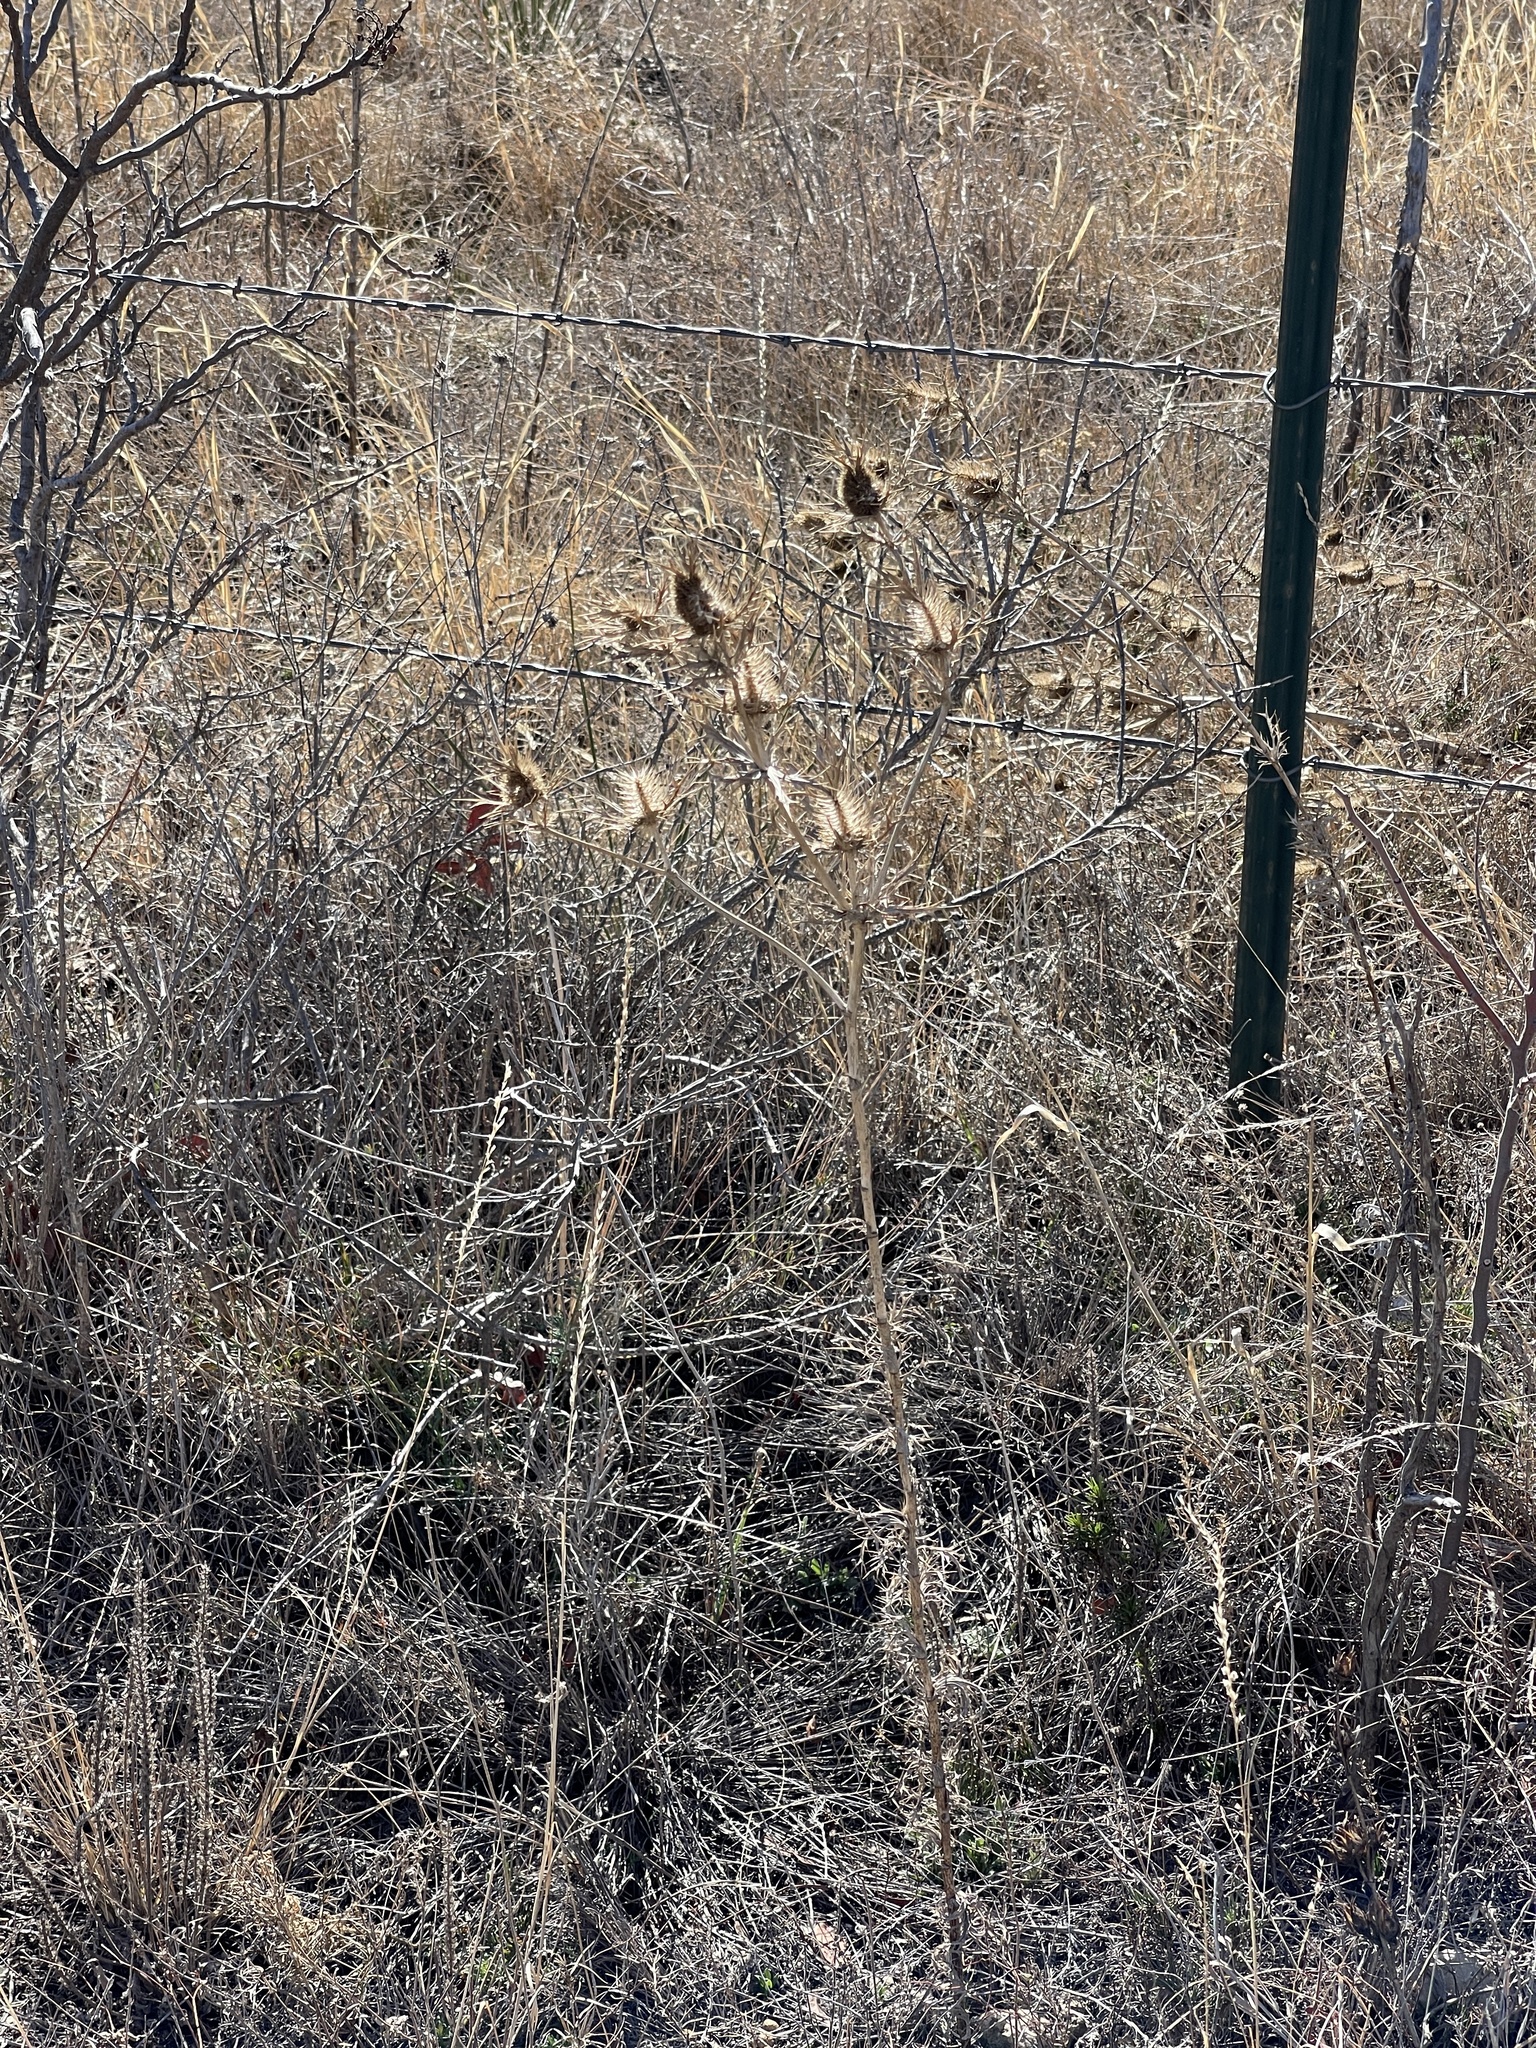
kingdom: Plantae
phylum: Tracheophyta
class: Magnoliopsida
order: Apiales
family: Apiaceae
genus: Eryngium
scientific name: Eryngium leavenworthii
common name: Leavenworth's eryngo
